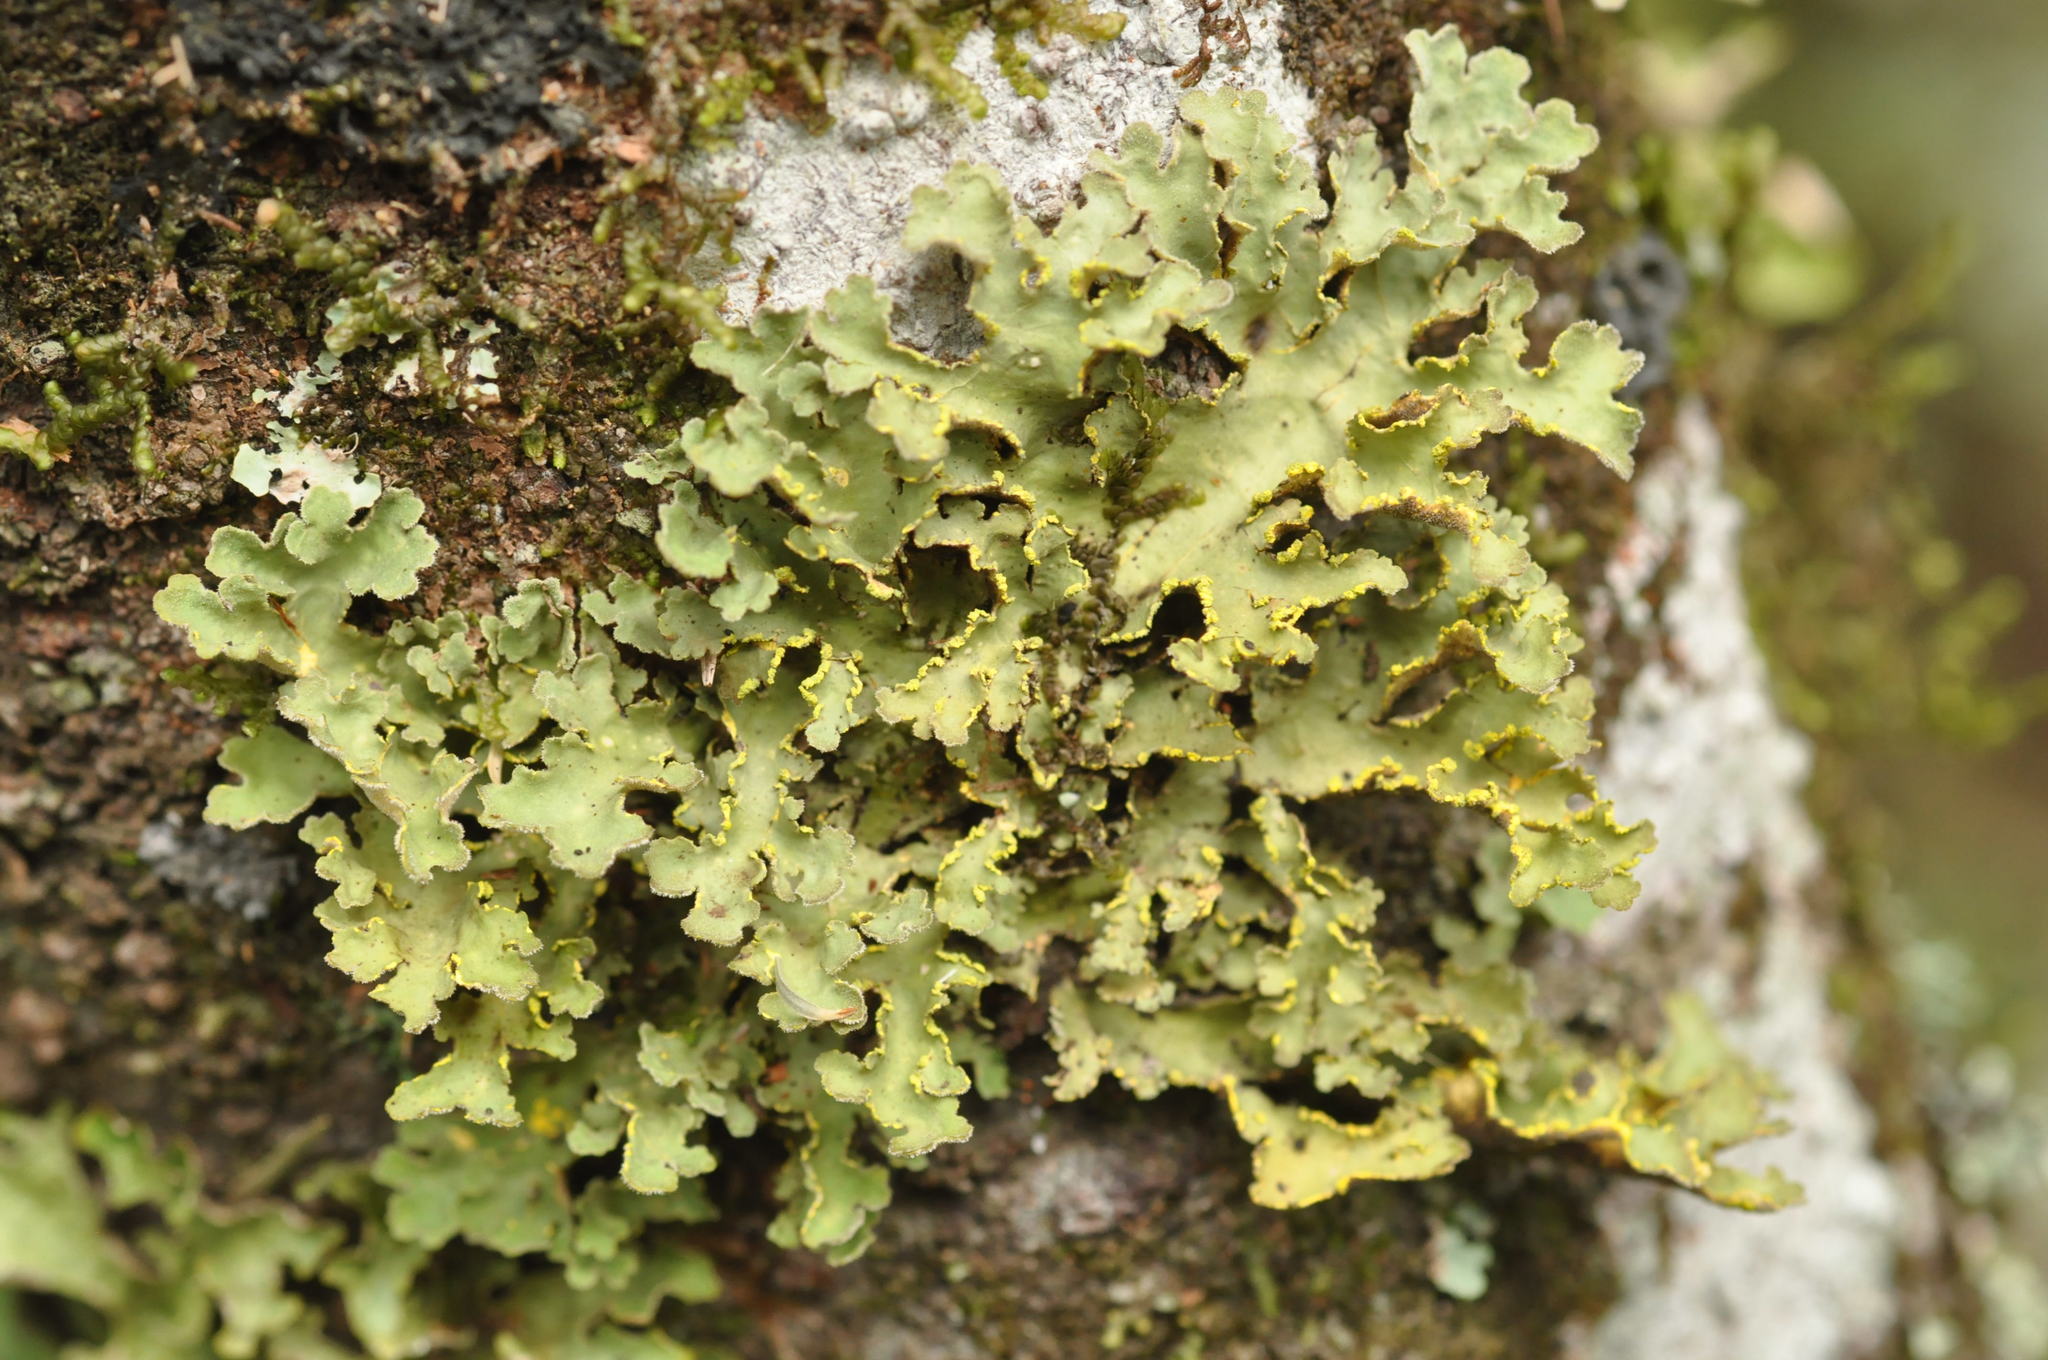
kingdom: Fungi
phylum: Ascomycota
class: Lecanoromycetes
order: Peltigerales
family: Lobariaceae
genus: Pseudocyphellaria
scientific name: Pseudocyphellaria aurata
